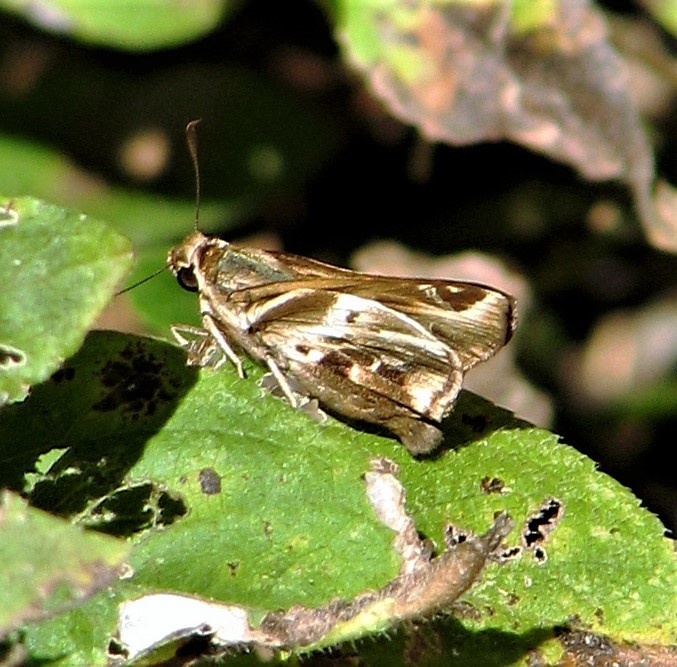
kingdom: Animalia
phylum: Arthropoda
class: Insecta
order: Lepidoptera
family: Hesperiidae
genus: Thespieus
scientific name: Thespieus ethemides
